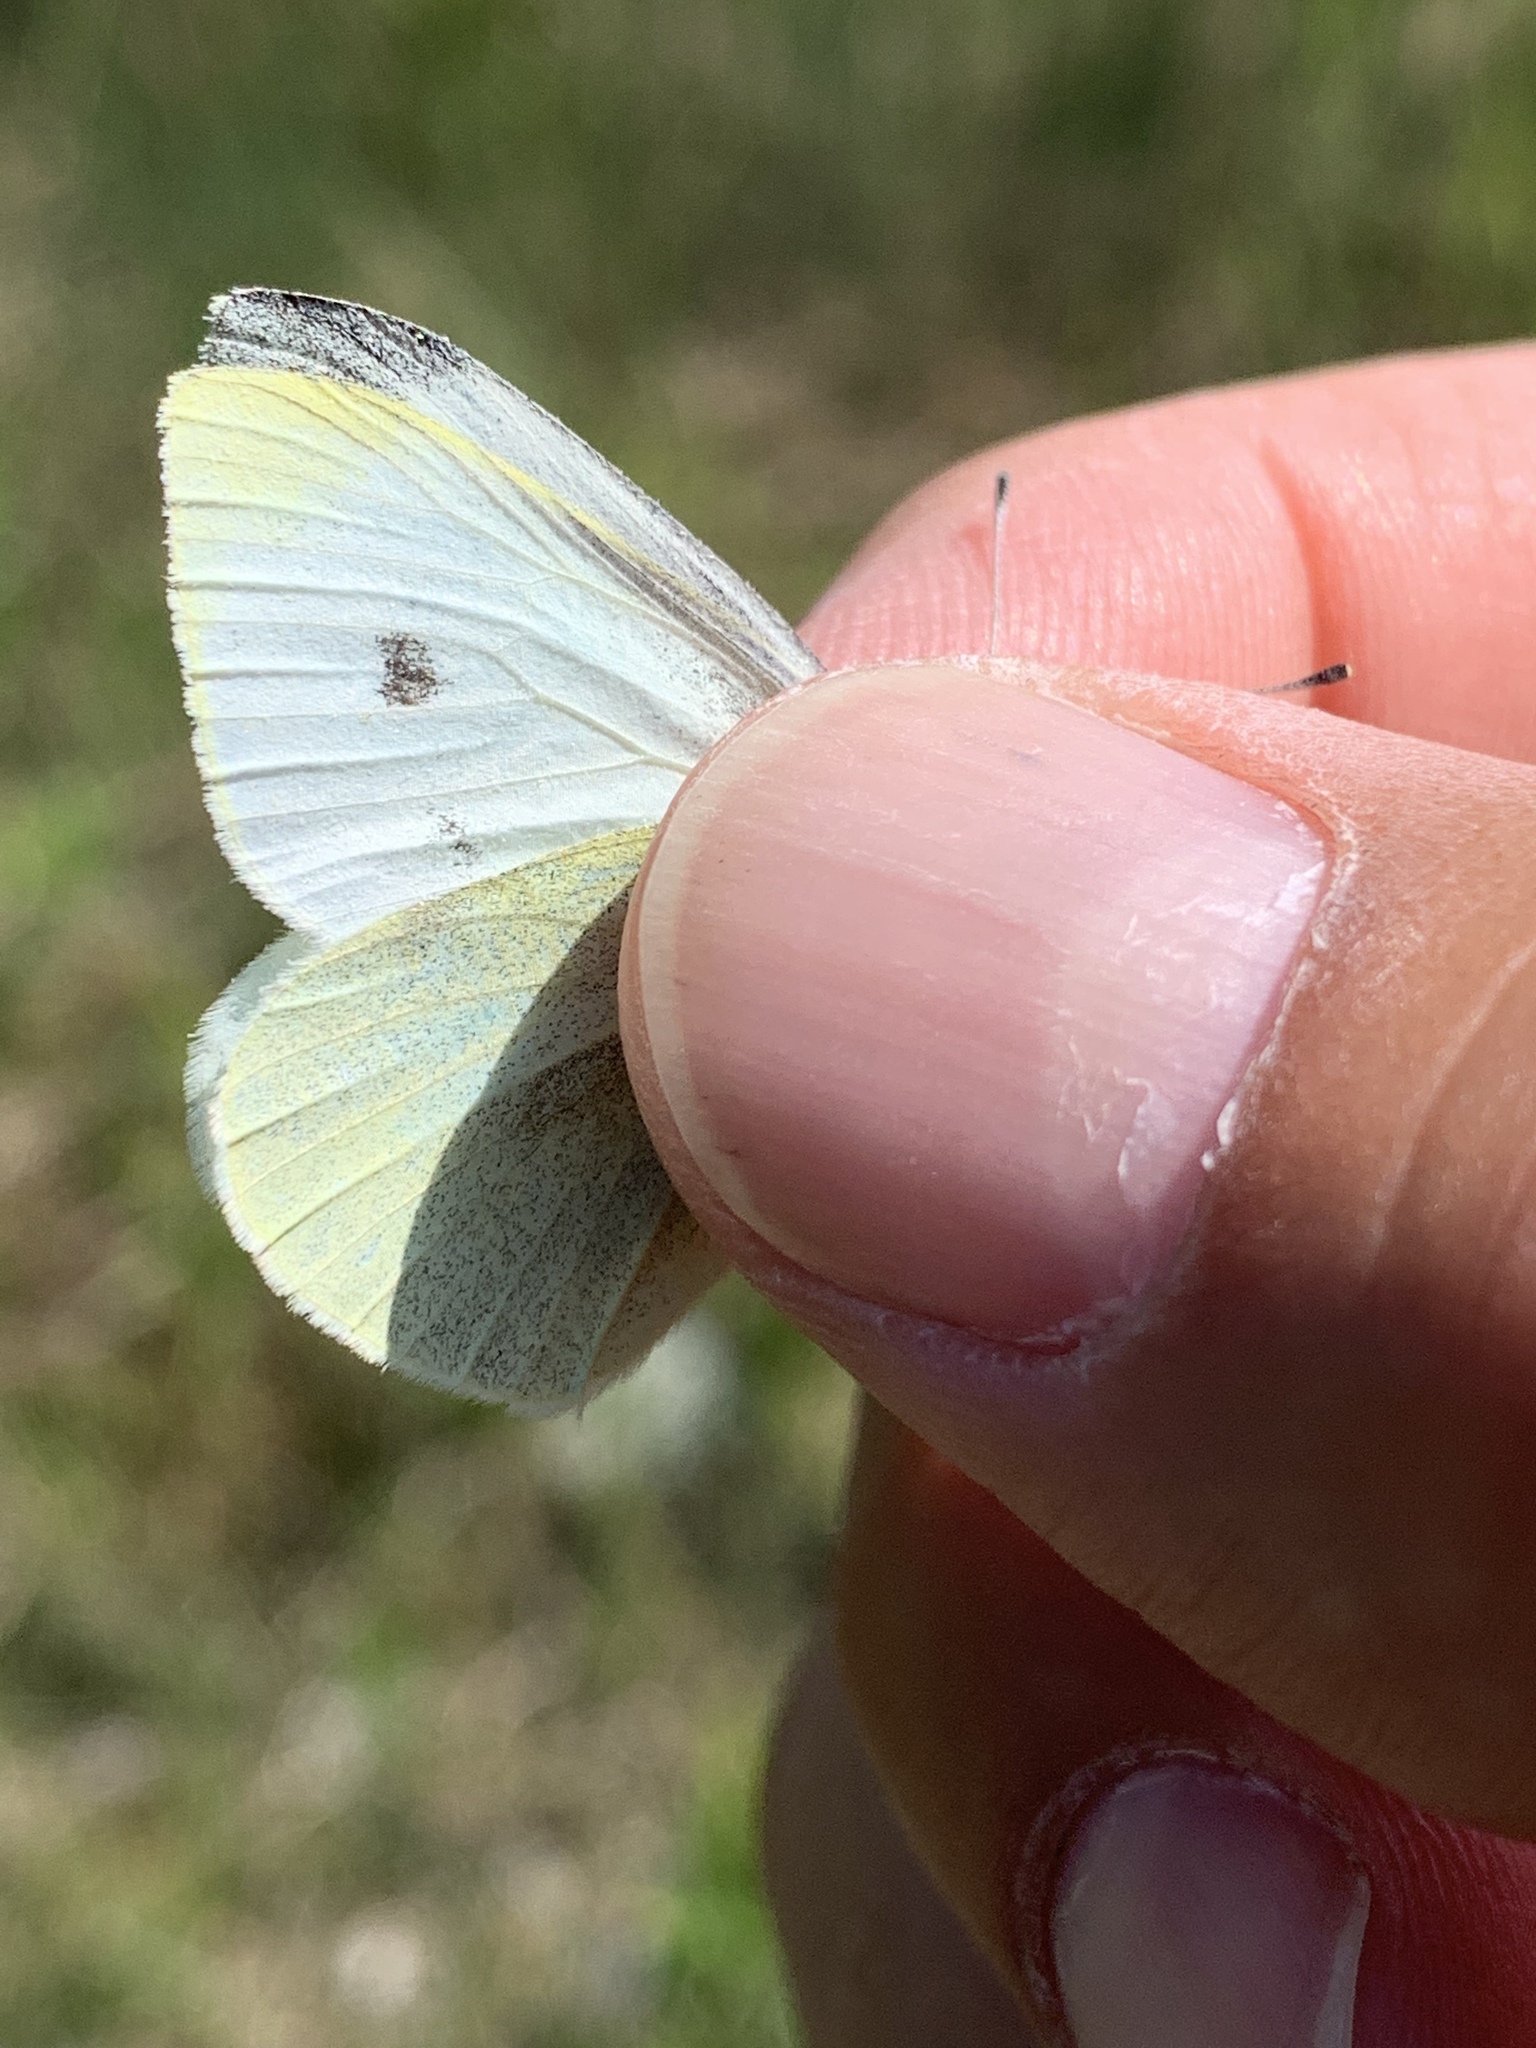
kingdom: Animalia
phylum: Arthropoda
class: Insecta
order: Lepidoptera
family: Pieridae
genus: Pieris
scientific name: Pieris rapae
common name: Small white
